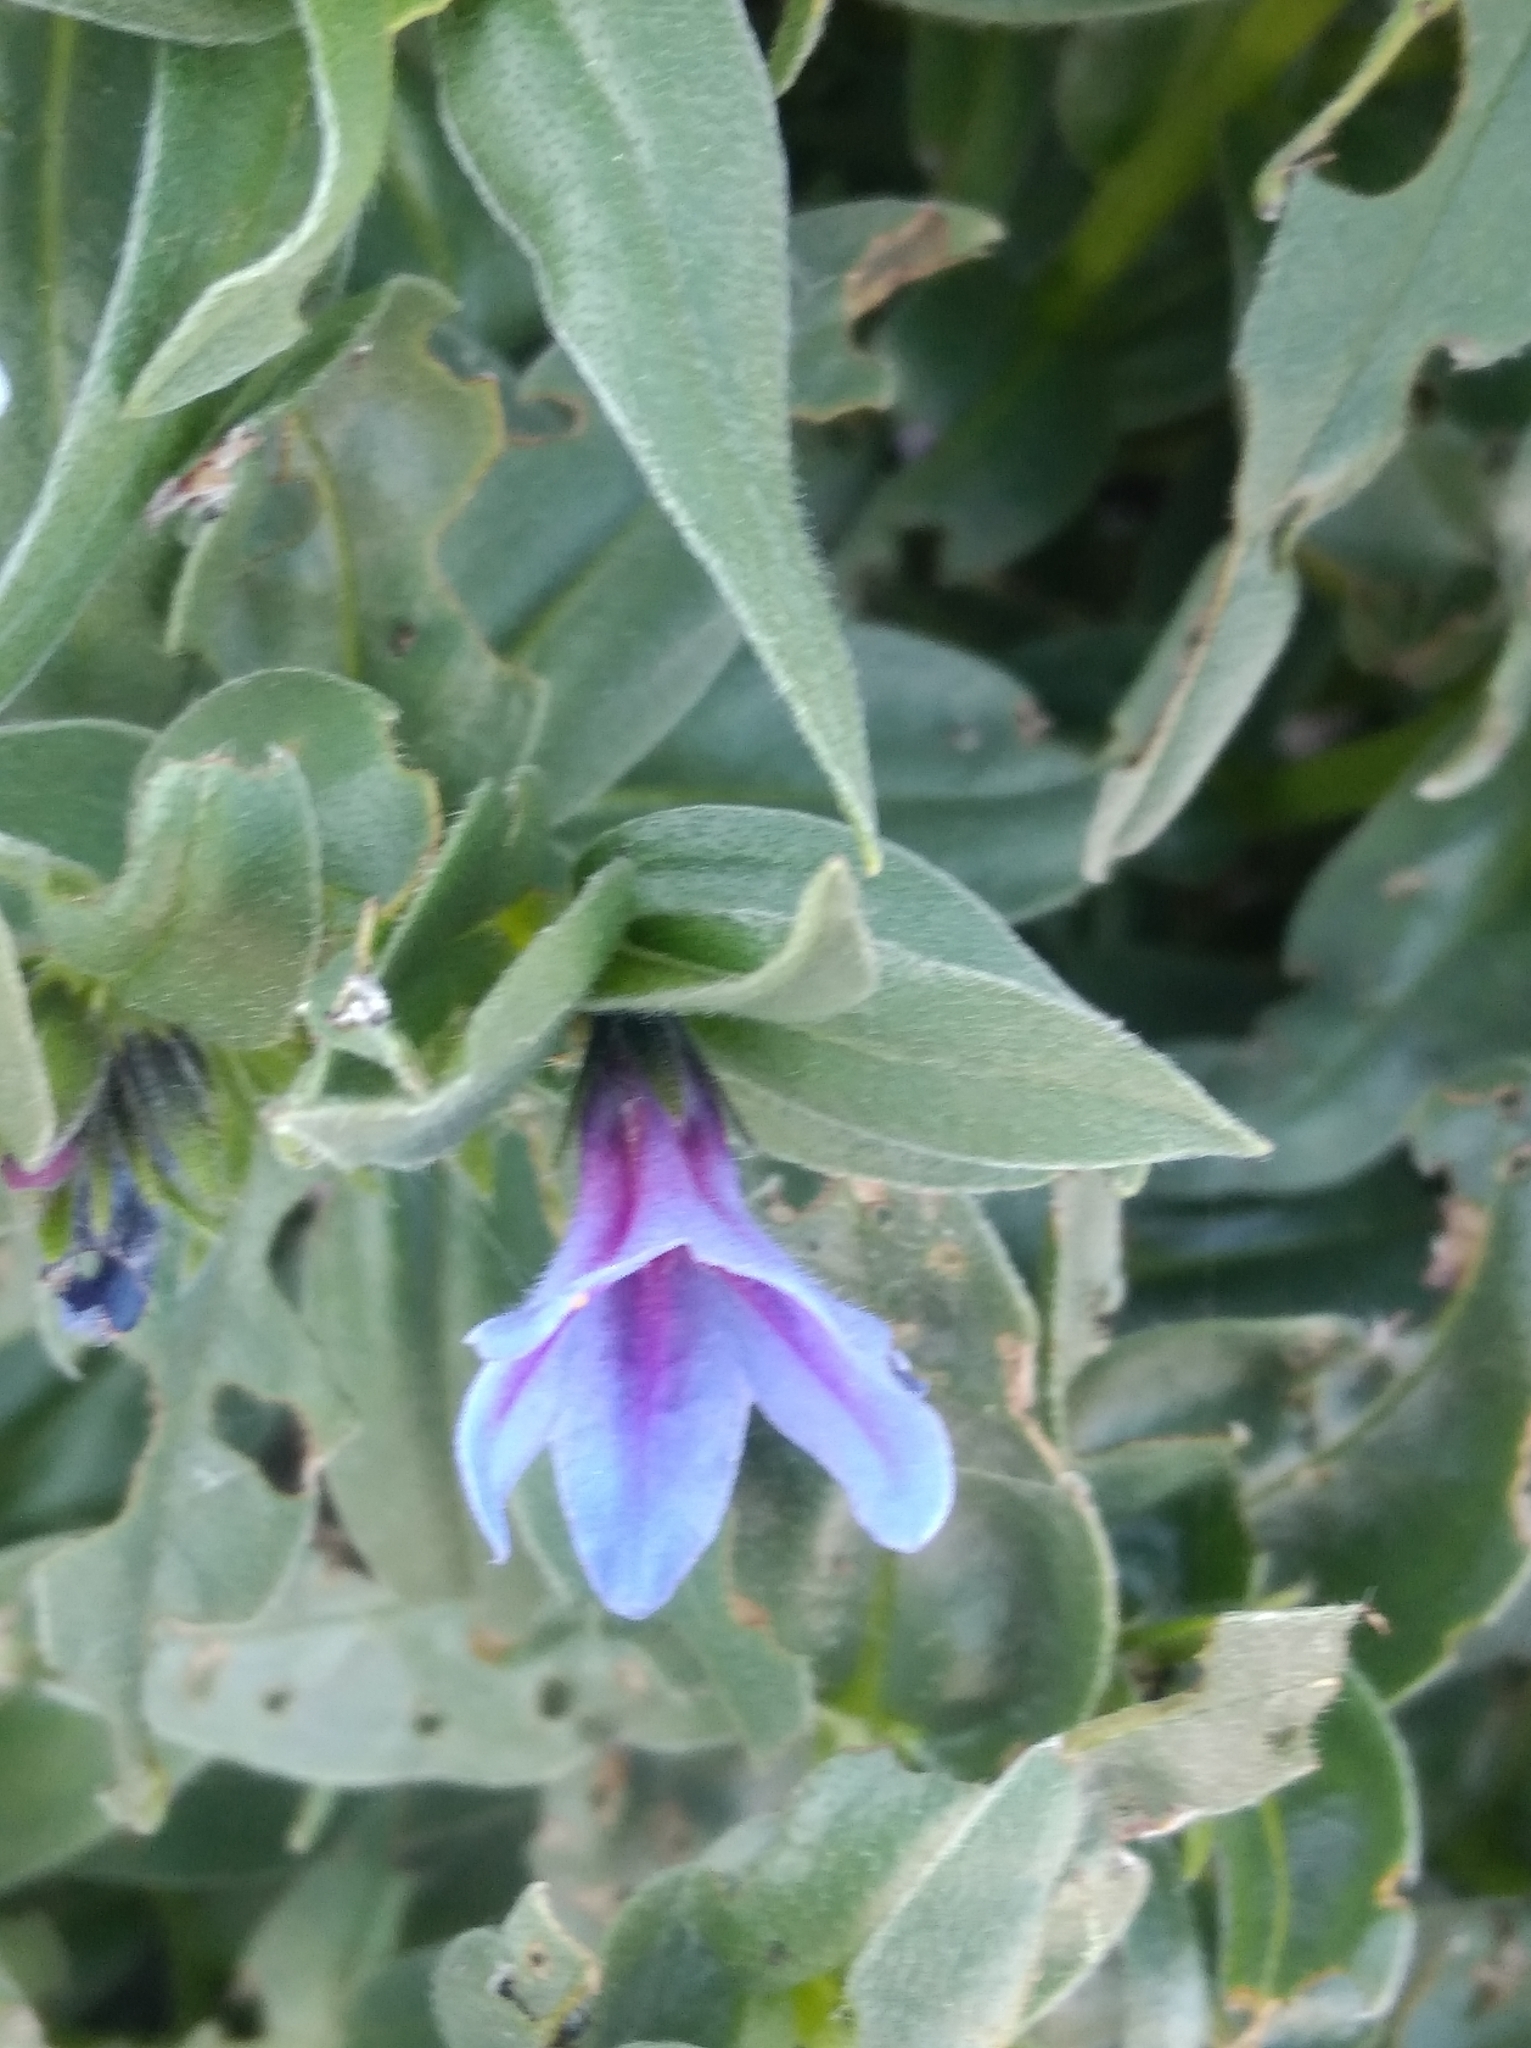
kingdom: Plantae
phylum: Tracheophyta
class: Magnoliopsida
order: Boraginales
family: Boraginaceae
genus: Glandora
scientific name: Glandora gastonii
